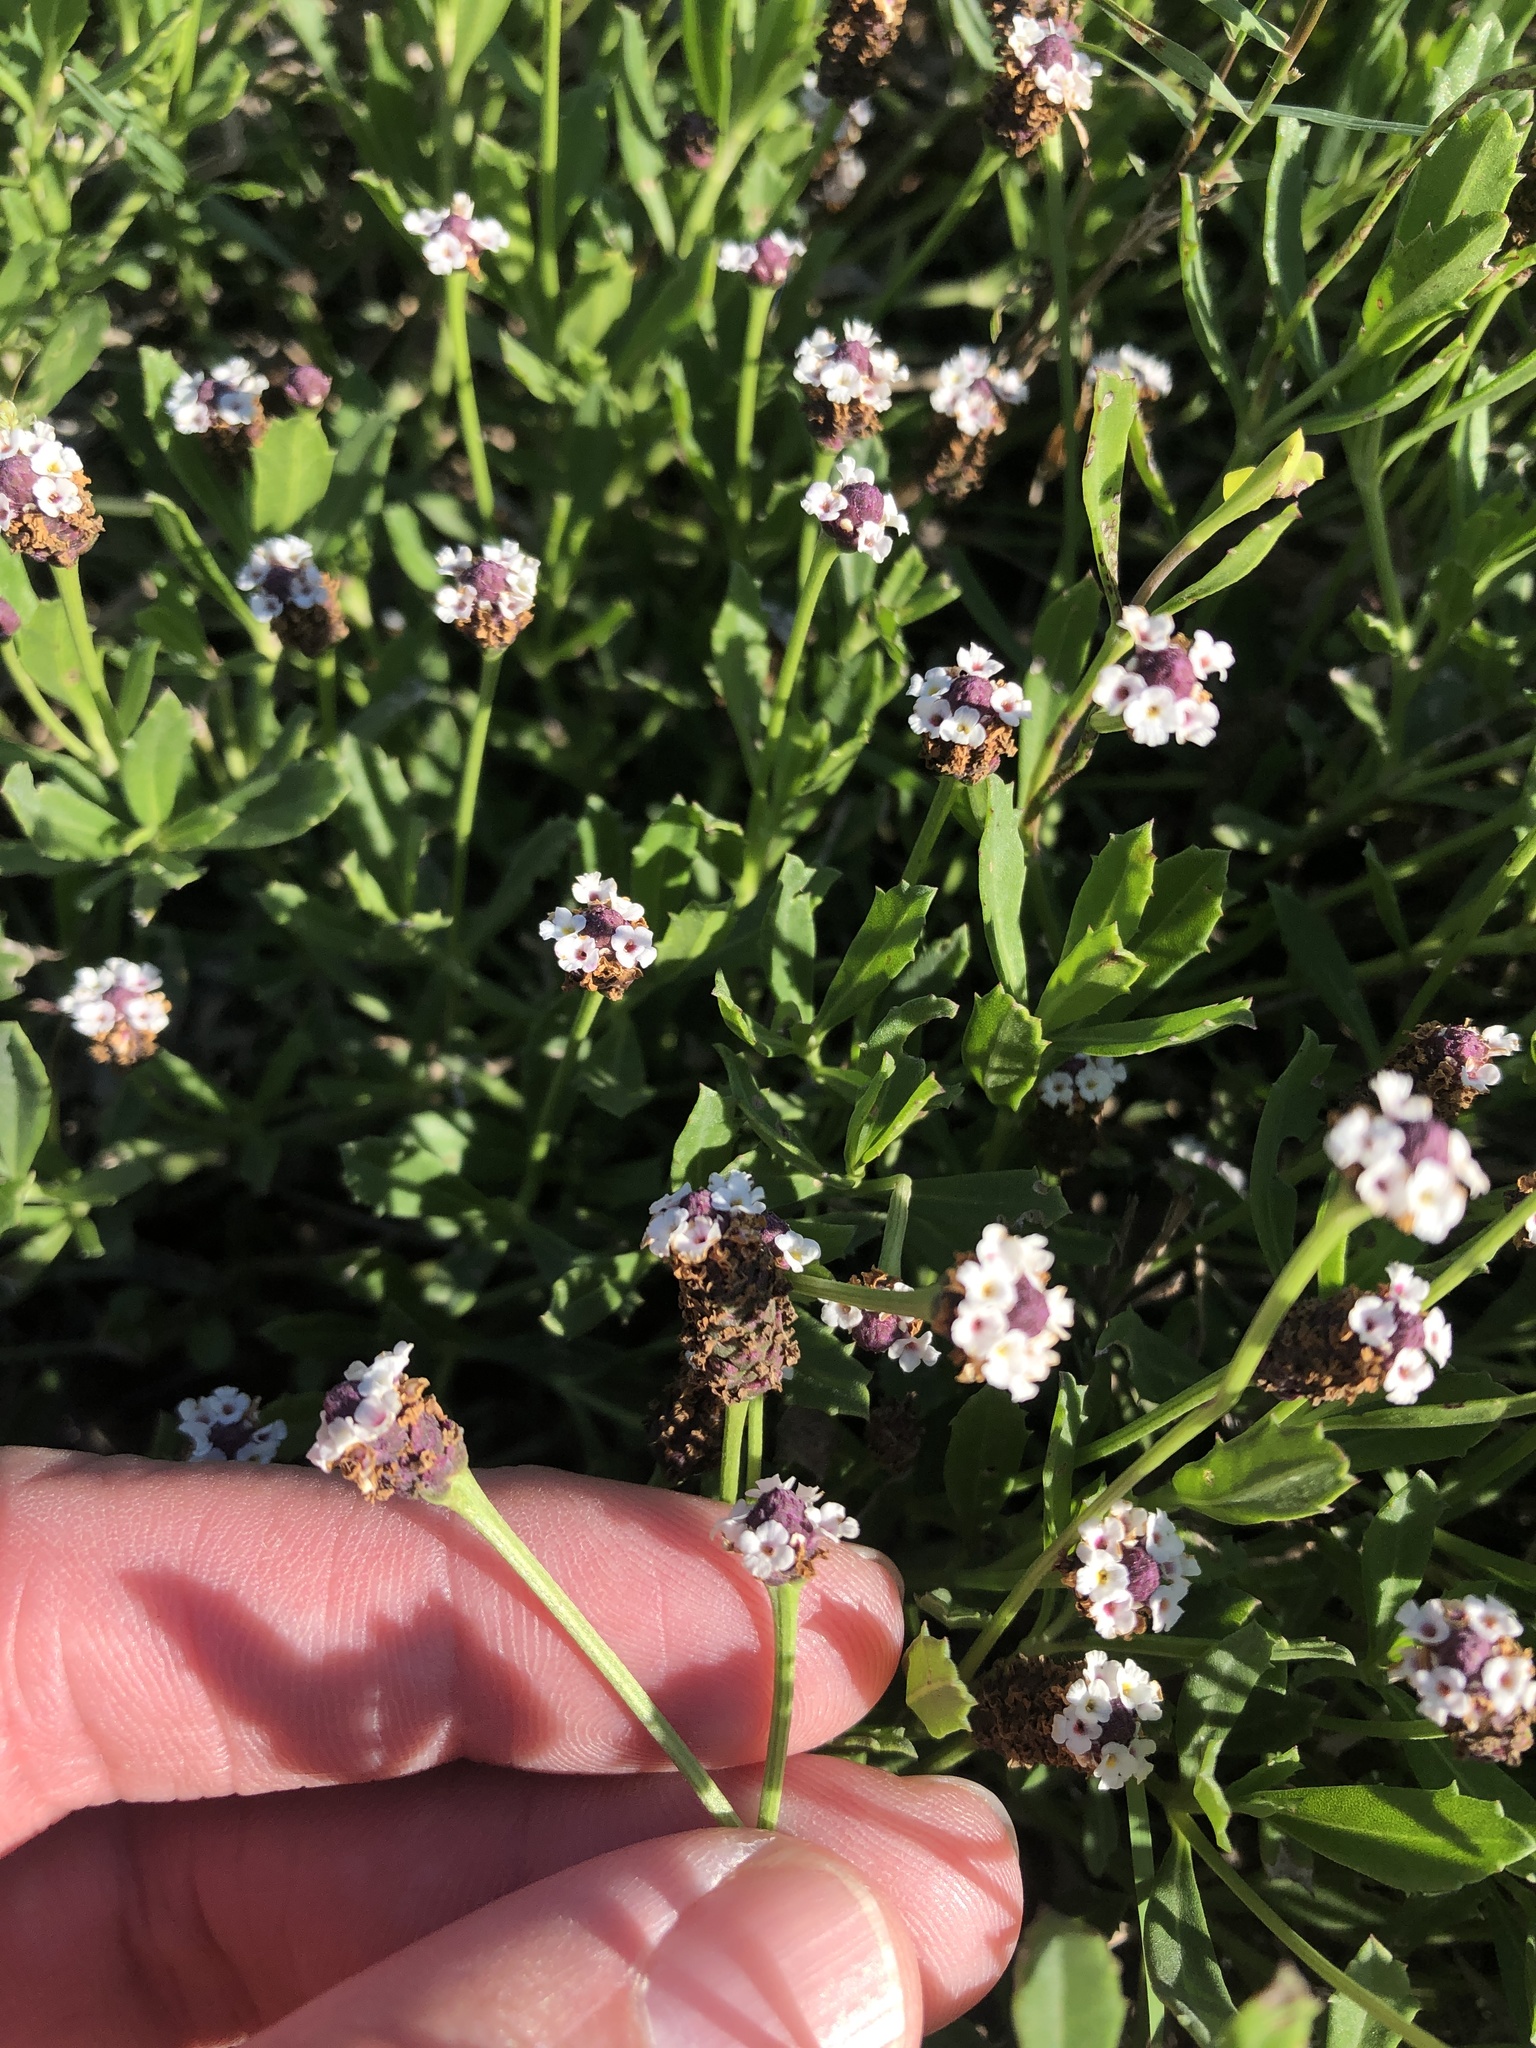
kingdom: Plantae
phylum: Tracheophyta
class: Magnoliopsida
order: Lamiales
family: Verbenaceae
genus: Phyla
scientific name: Phyla nodiflora
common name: Frogfruit
